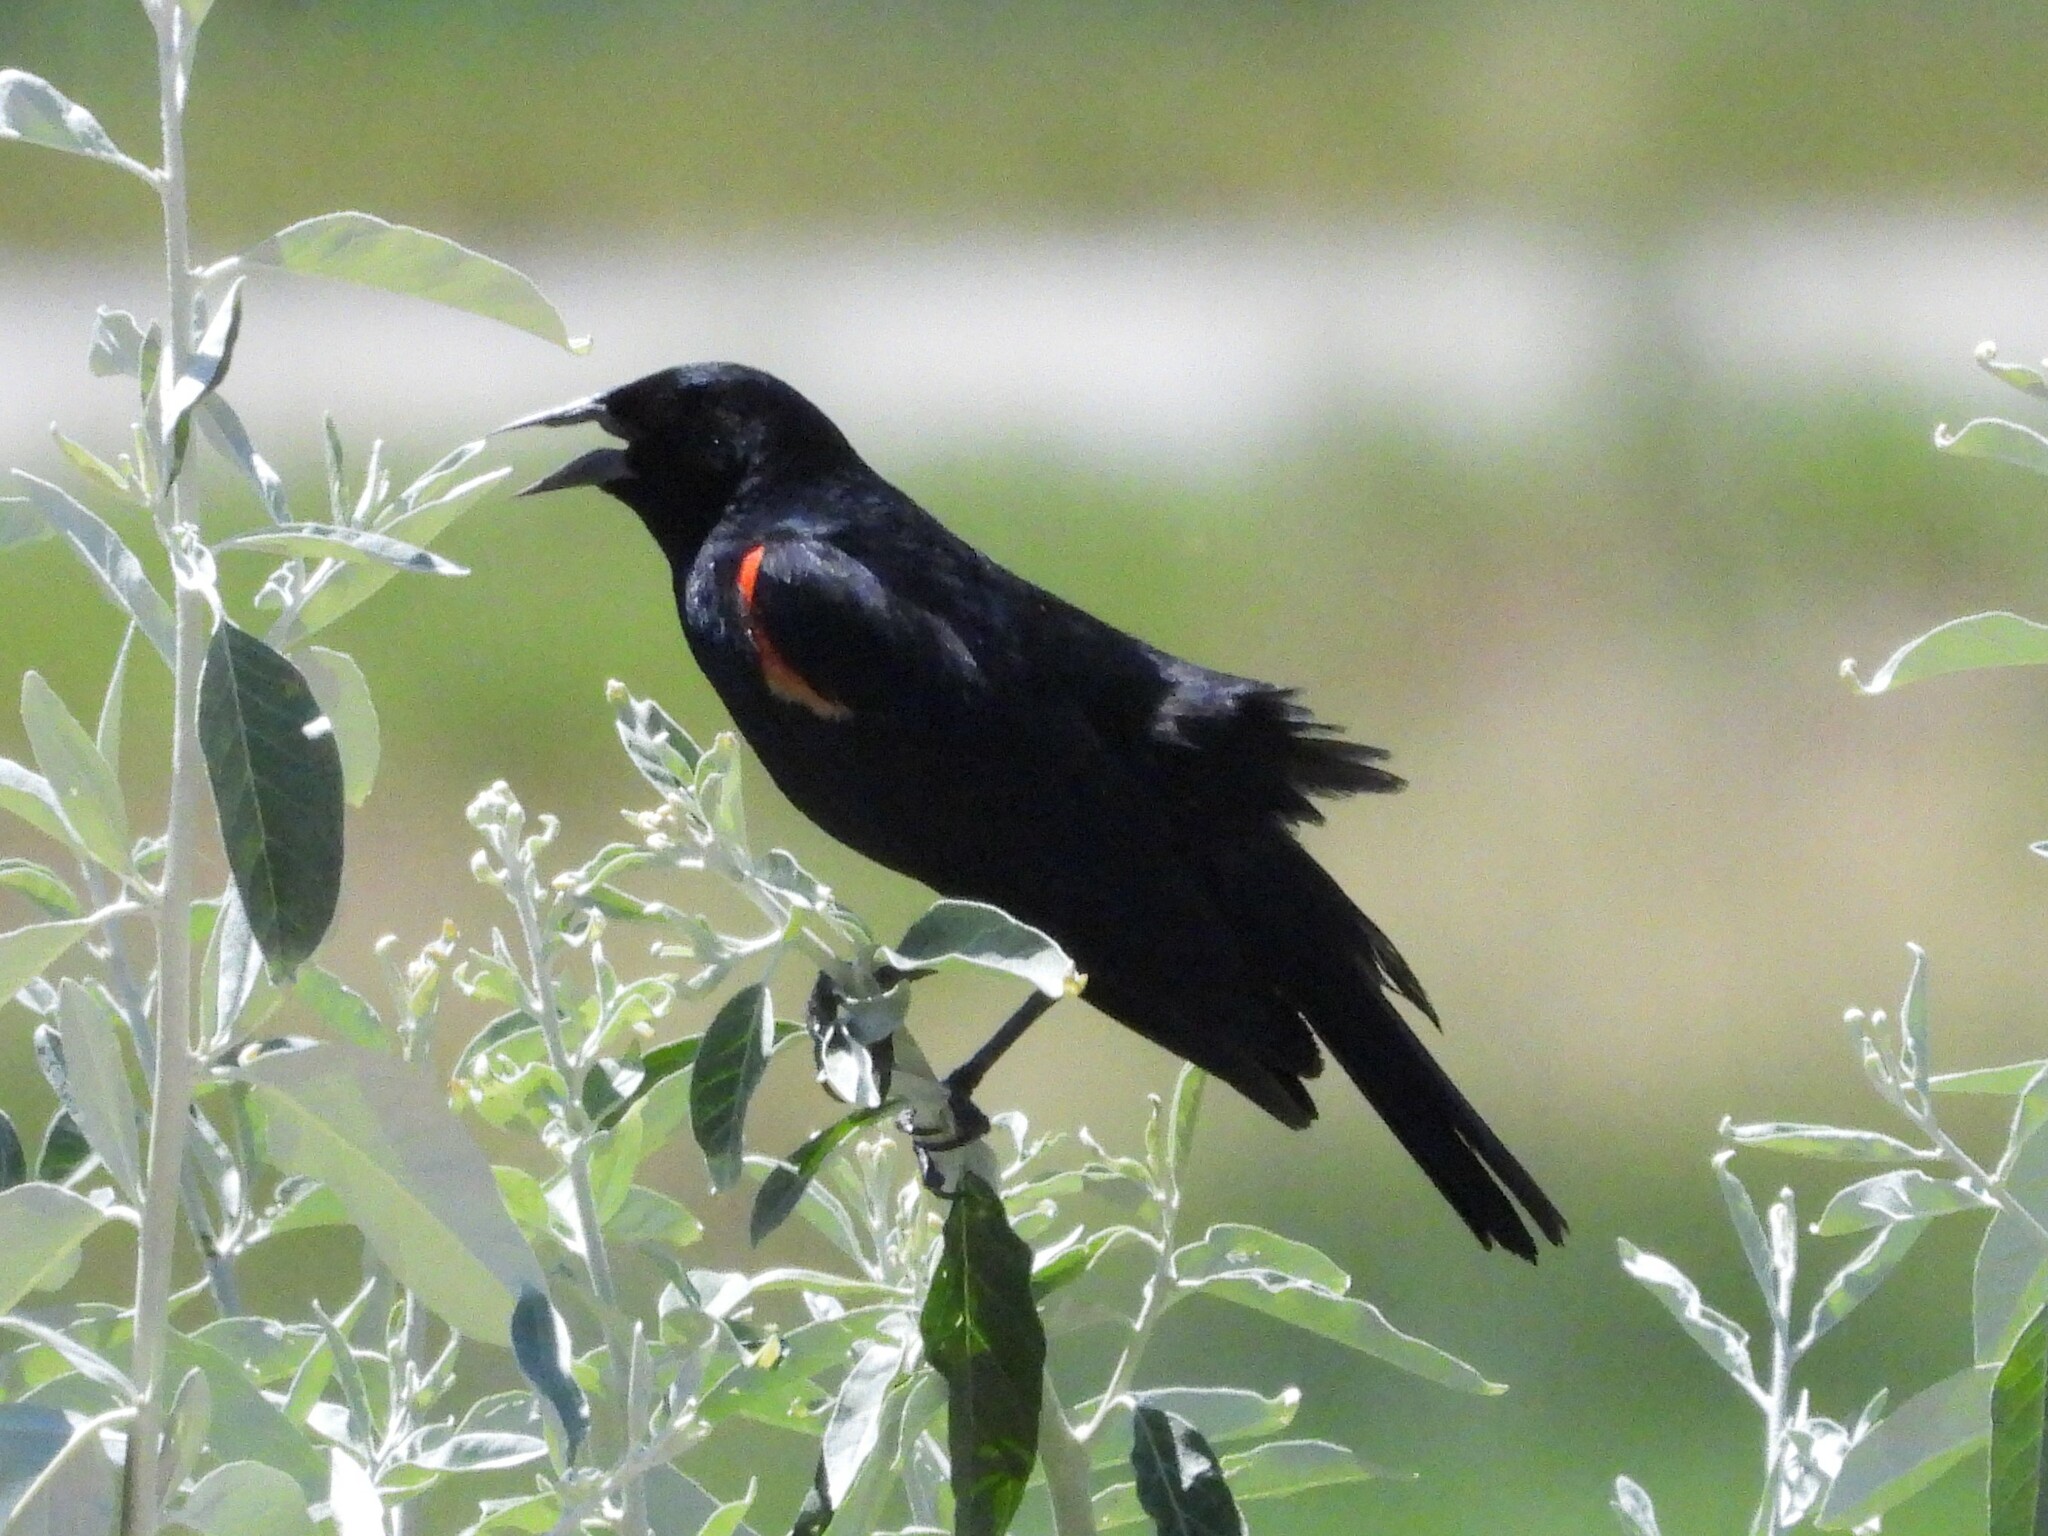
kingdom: Animalia
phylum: Chordata
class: Aves
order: Passeriformes
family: Icteridae
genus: Agelaius
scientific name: Agelaius phoeniceus
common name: Red-winged blackbird
